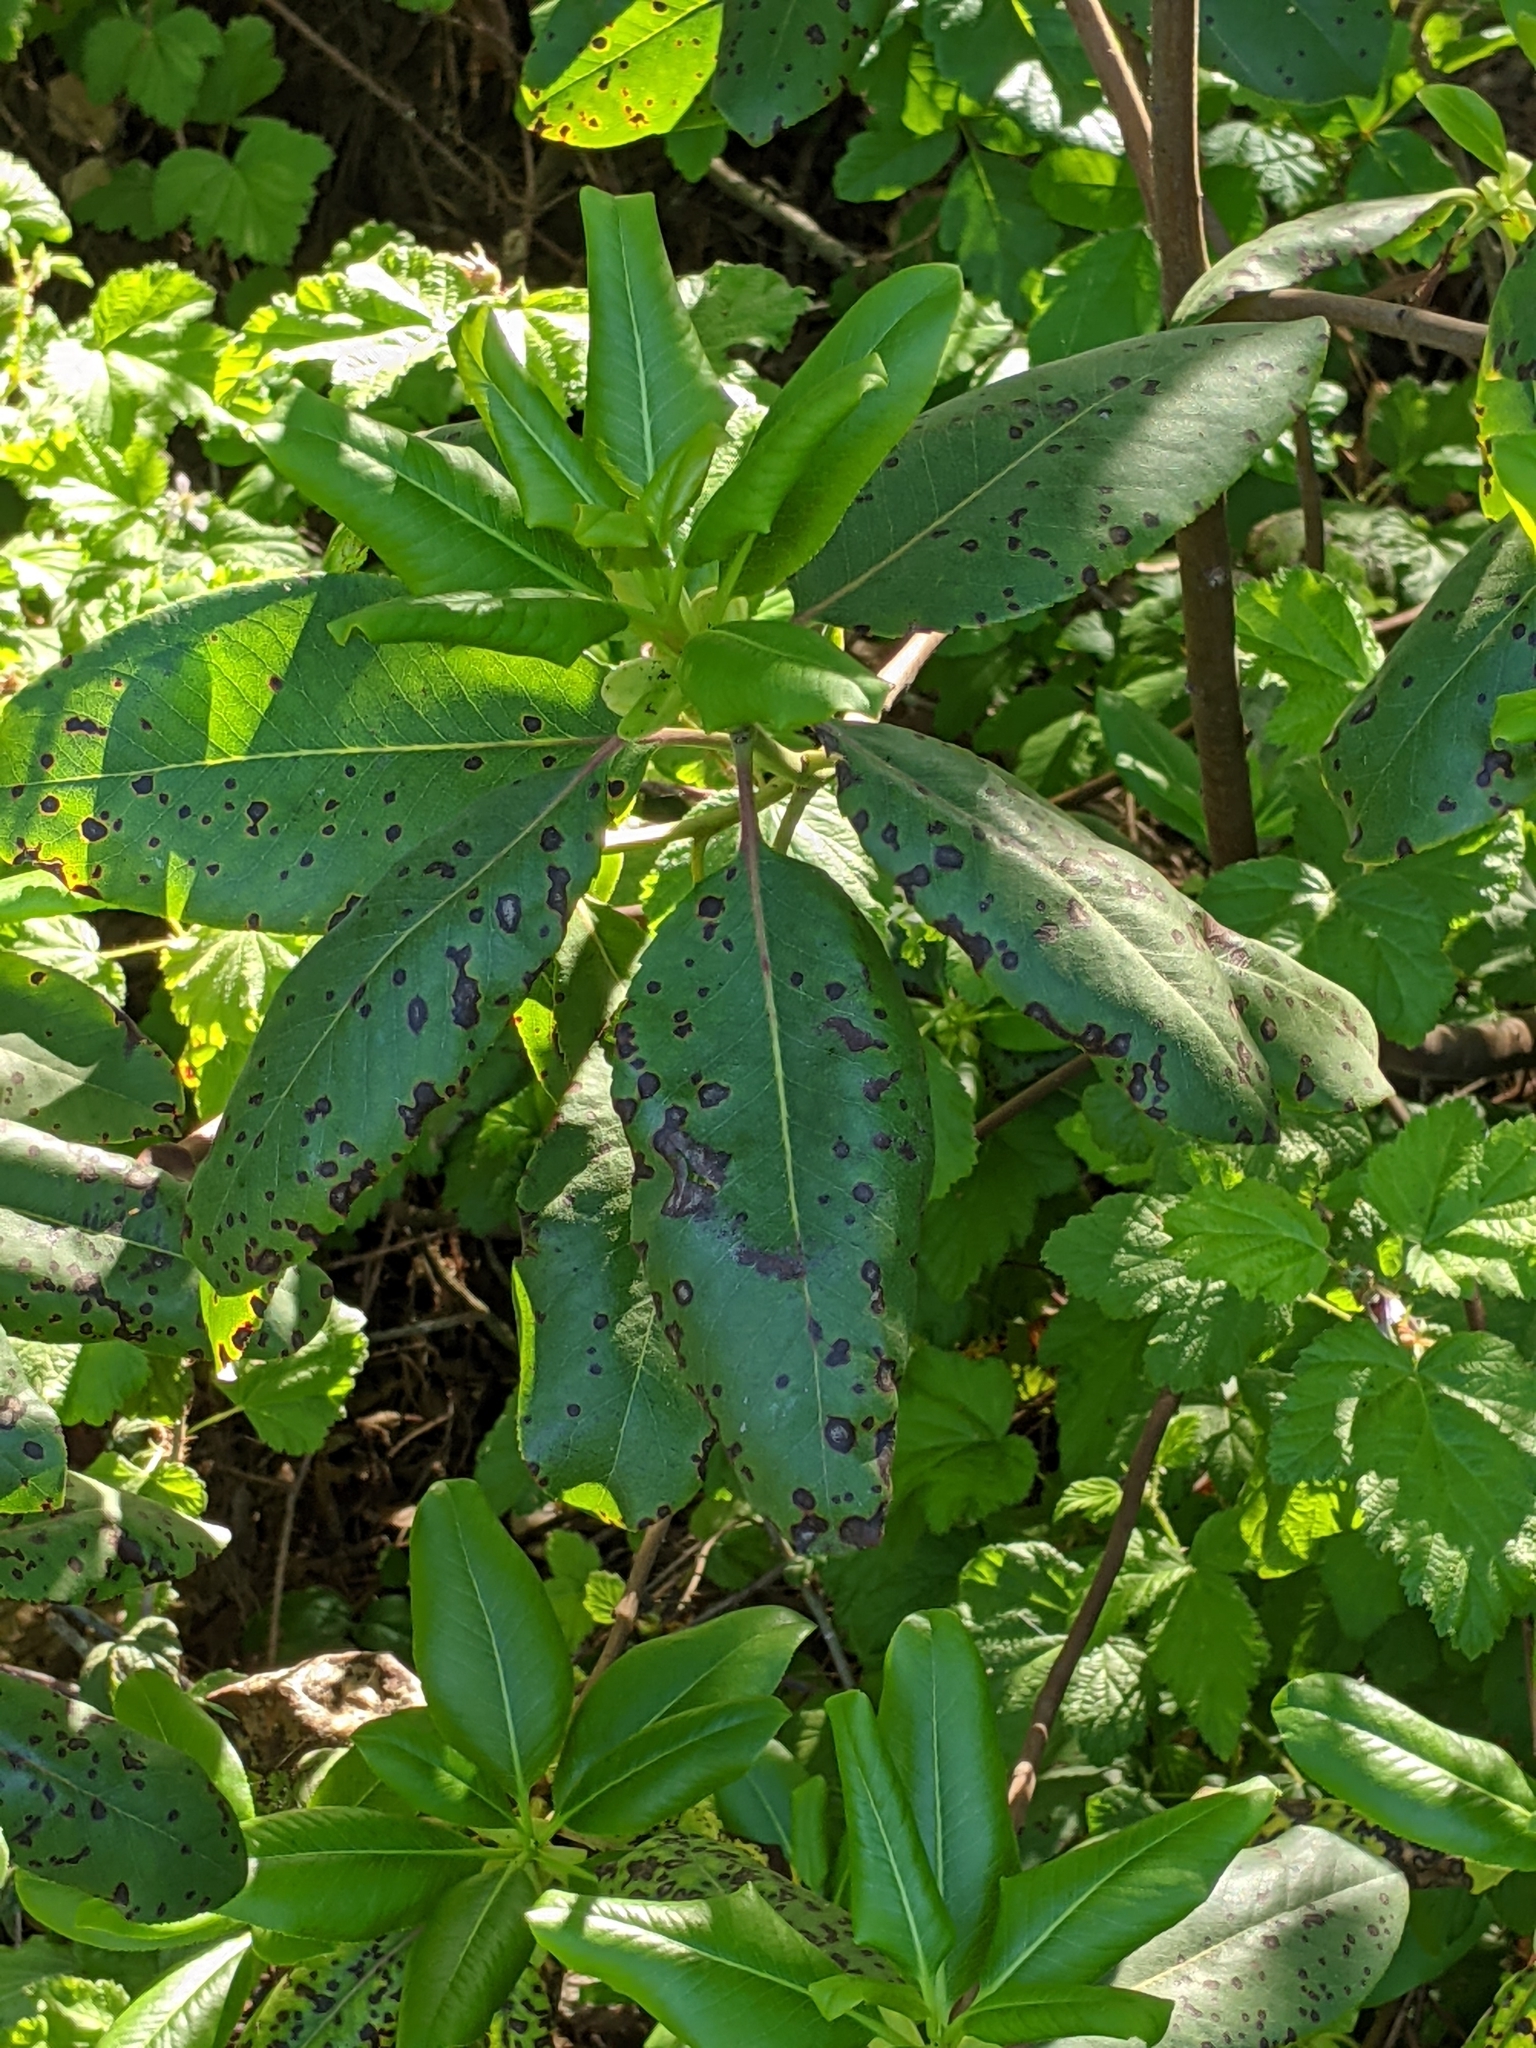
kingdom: Plantae
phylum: Tracheophyta
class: Magnoliopsida
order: Ericales
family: Ericaceae
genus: Arbutus
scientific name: Arbutus menziesii
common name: Pacific madrone
